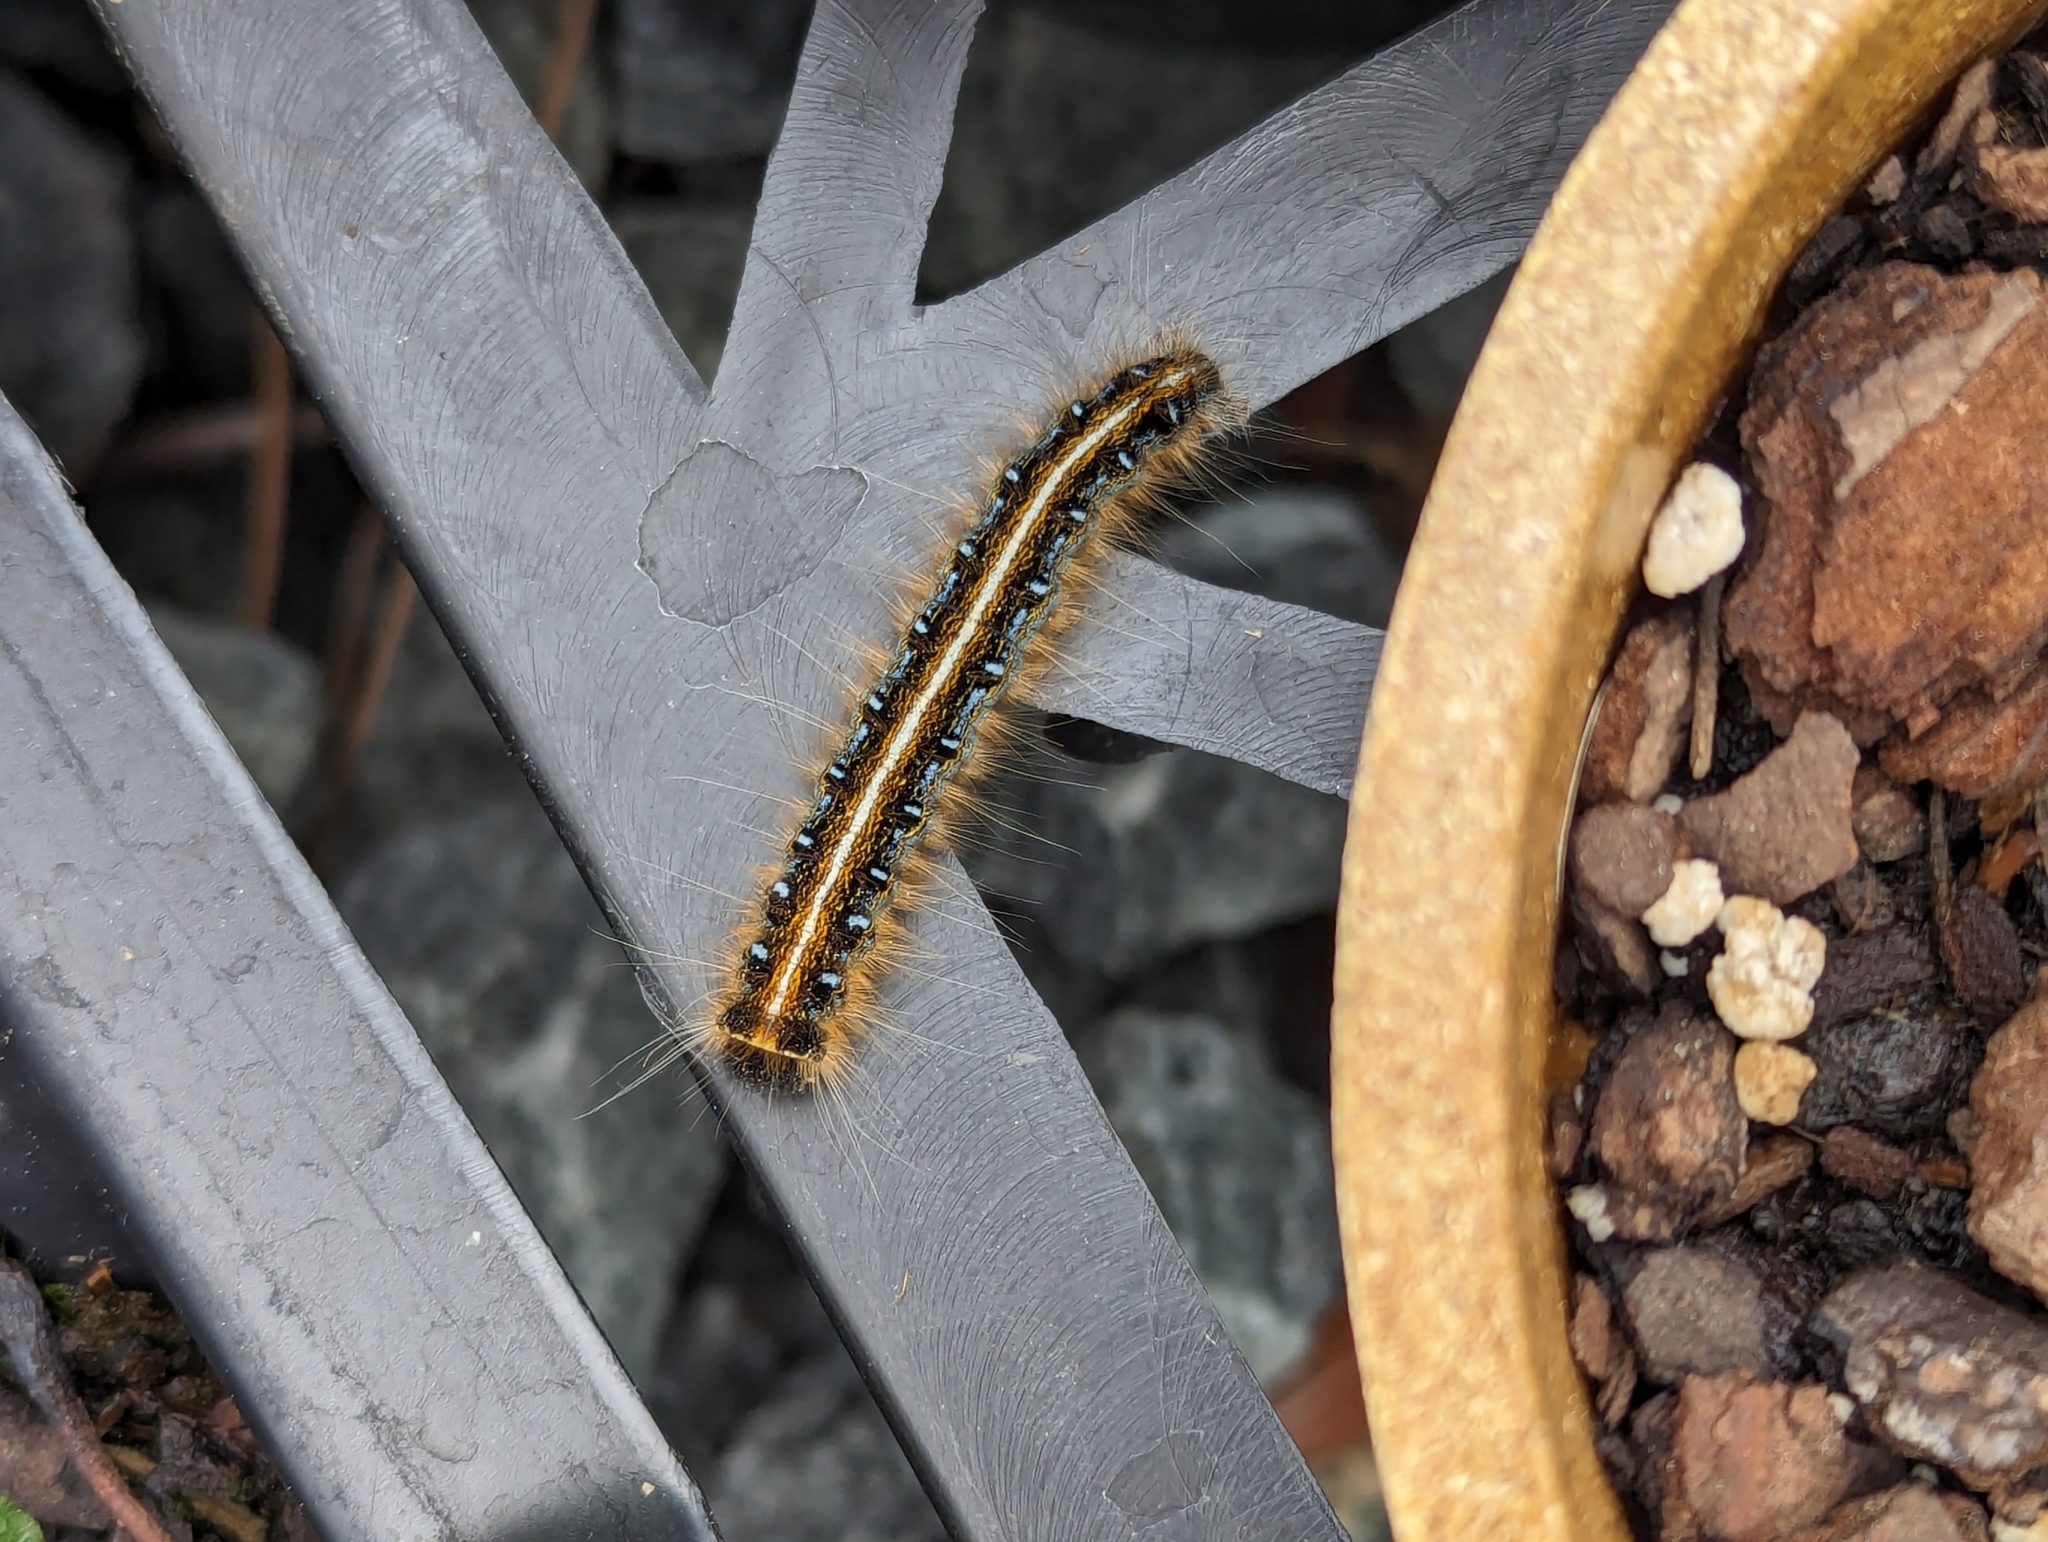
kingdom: Animalia
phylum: Arthropoda
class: Insecta
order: Lepidoptera
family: Lasiocampidae
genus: Malacosoma
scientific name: Malacosoma americana
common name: Eastern tent caterpillar moth
